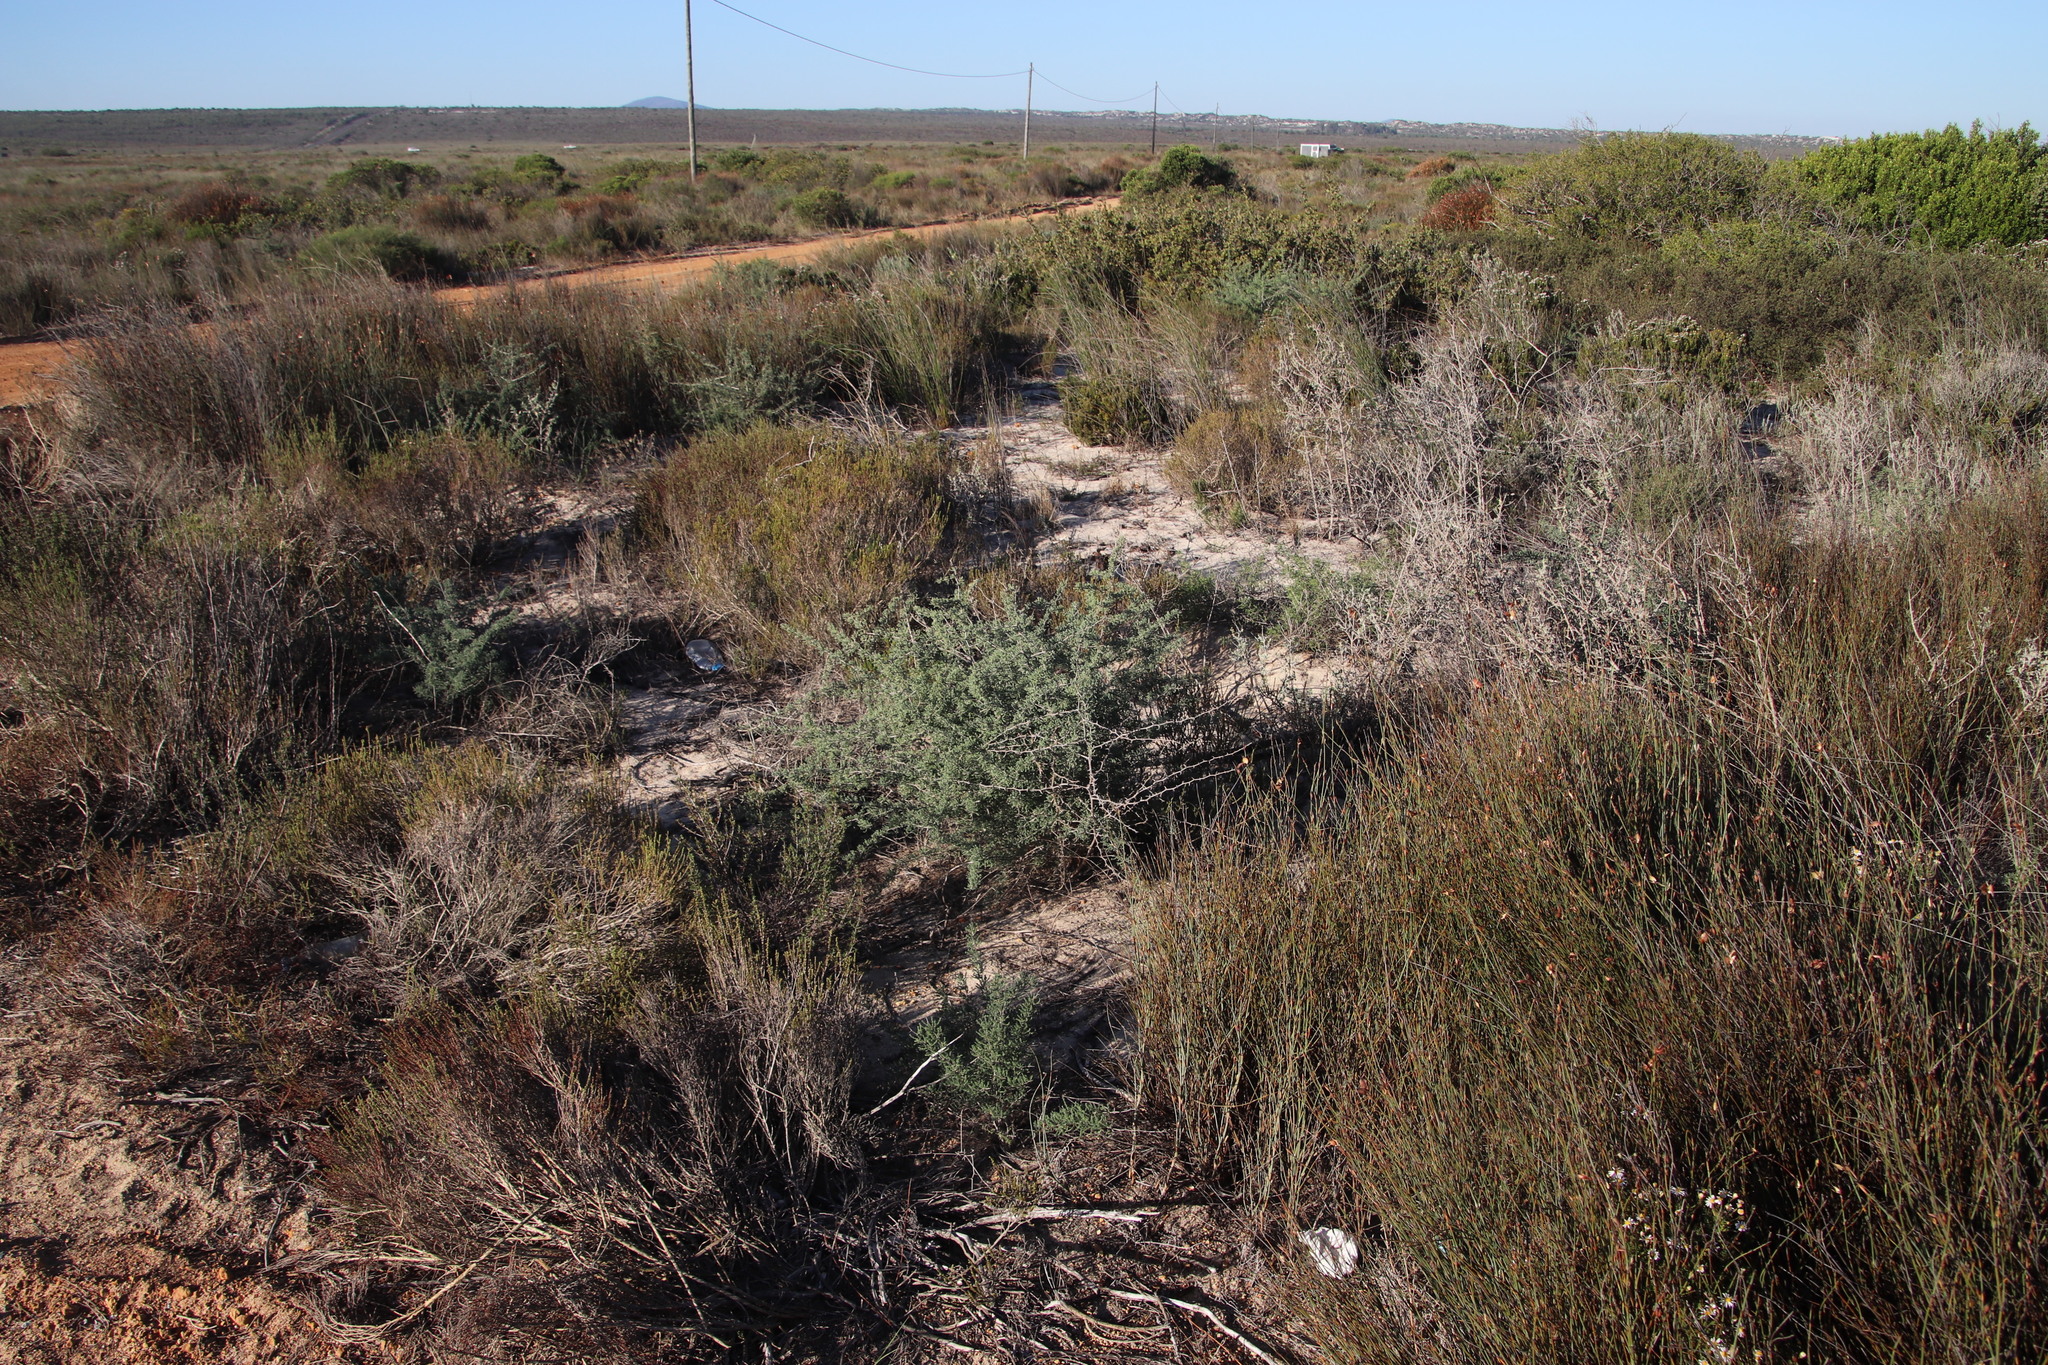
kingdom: Plantae
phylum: Tracheophyta
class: Liliopsida
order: Asparagales
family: Asparagaceae
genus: Asparagus
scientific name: Asparagus capensis
